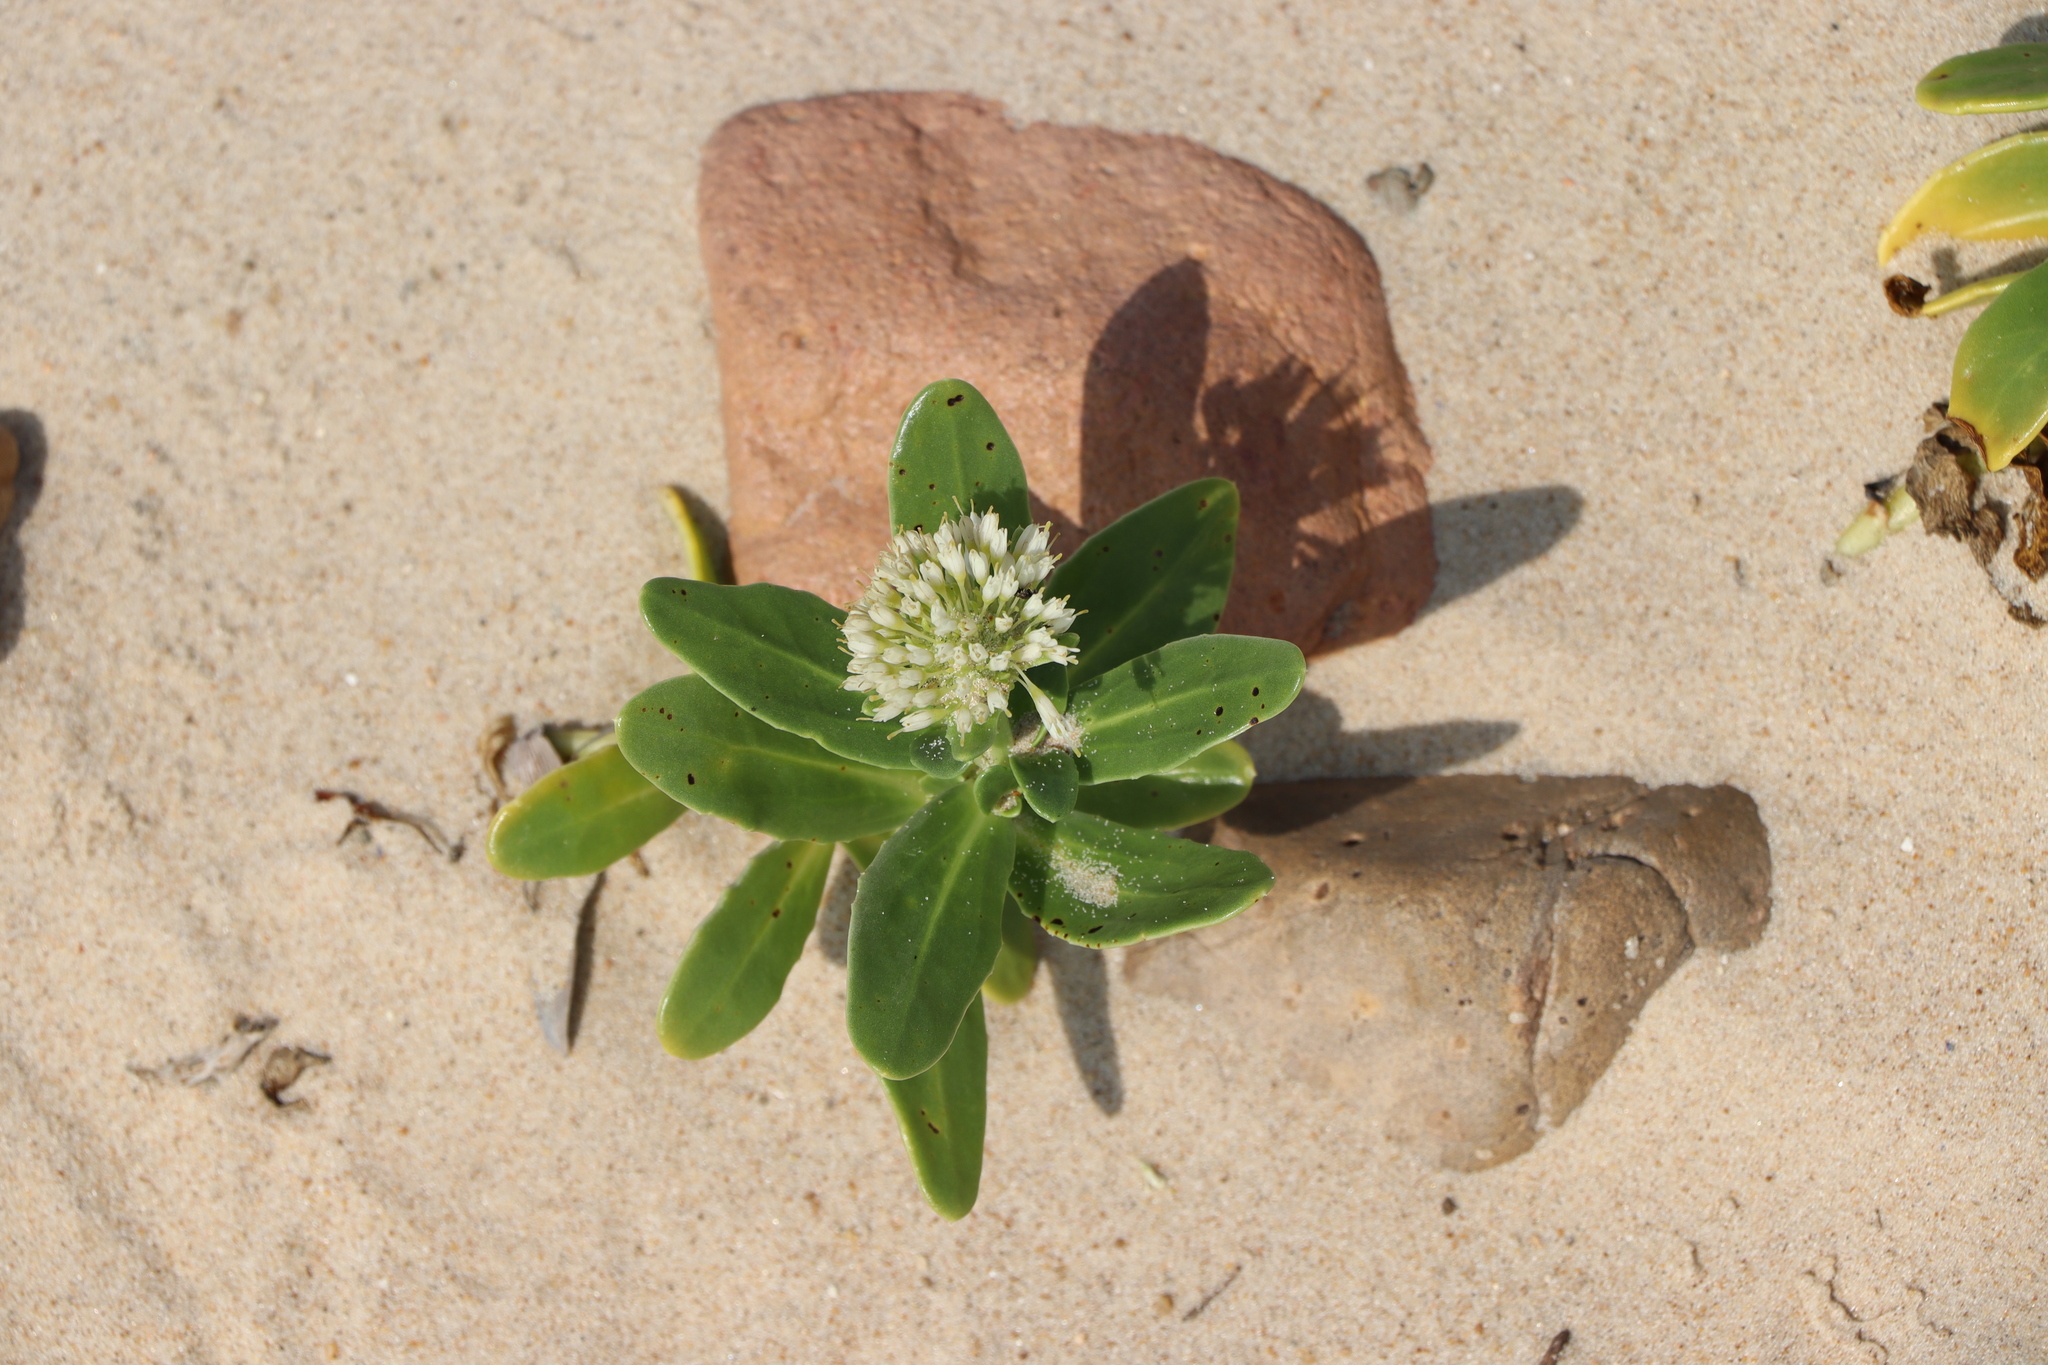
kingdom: Plantae
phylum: Tracheophyta
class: Magnoliopsida
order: Asterales
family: Calyceraceae
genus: Calycera
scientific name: Calycera crassifolia
